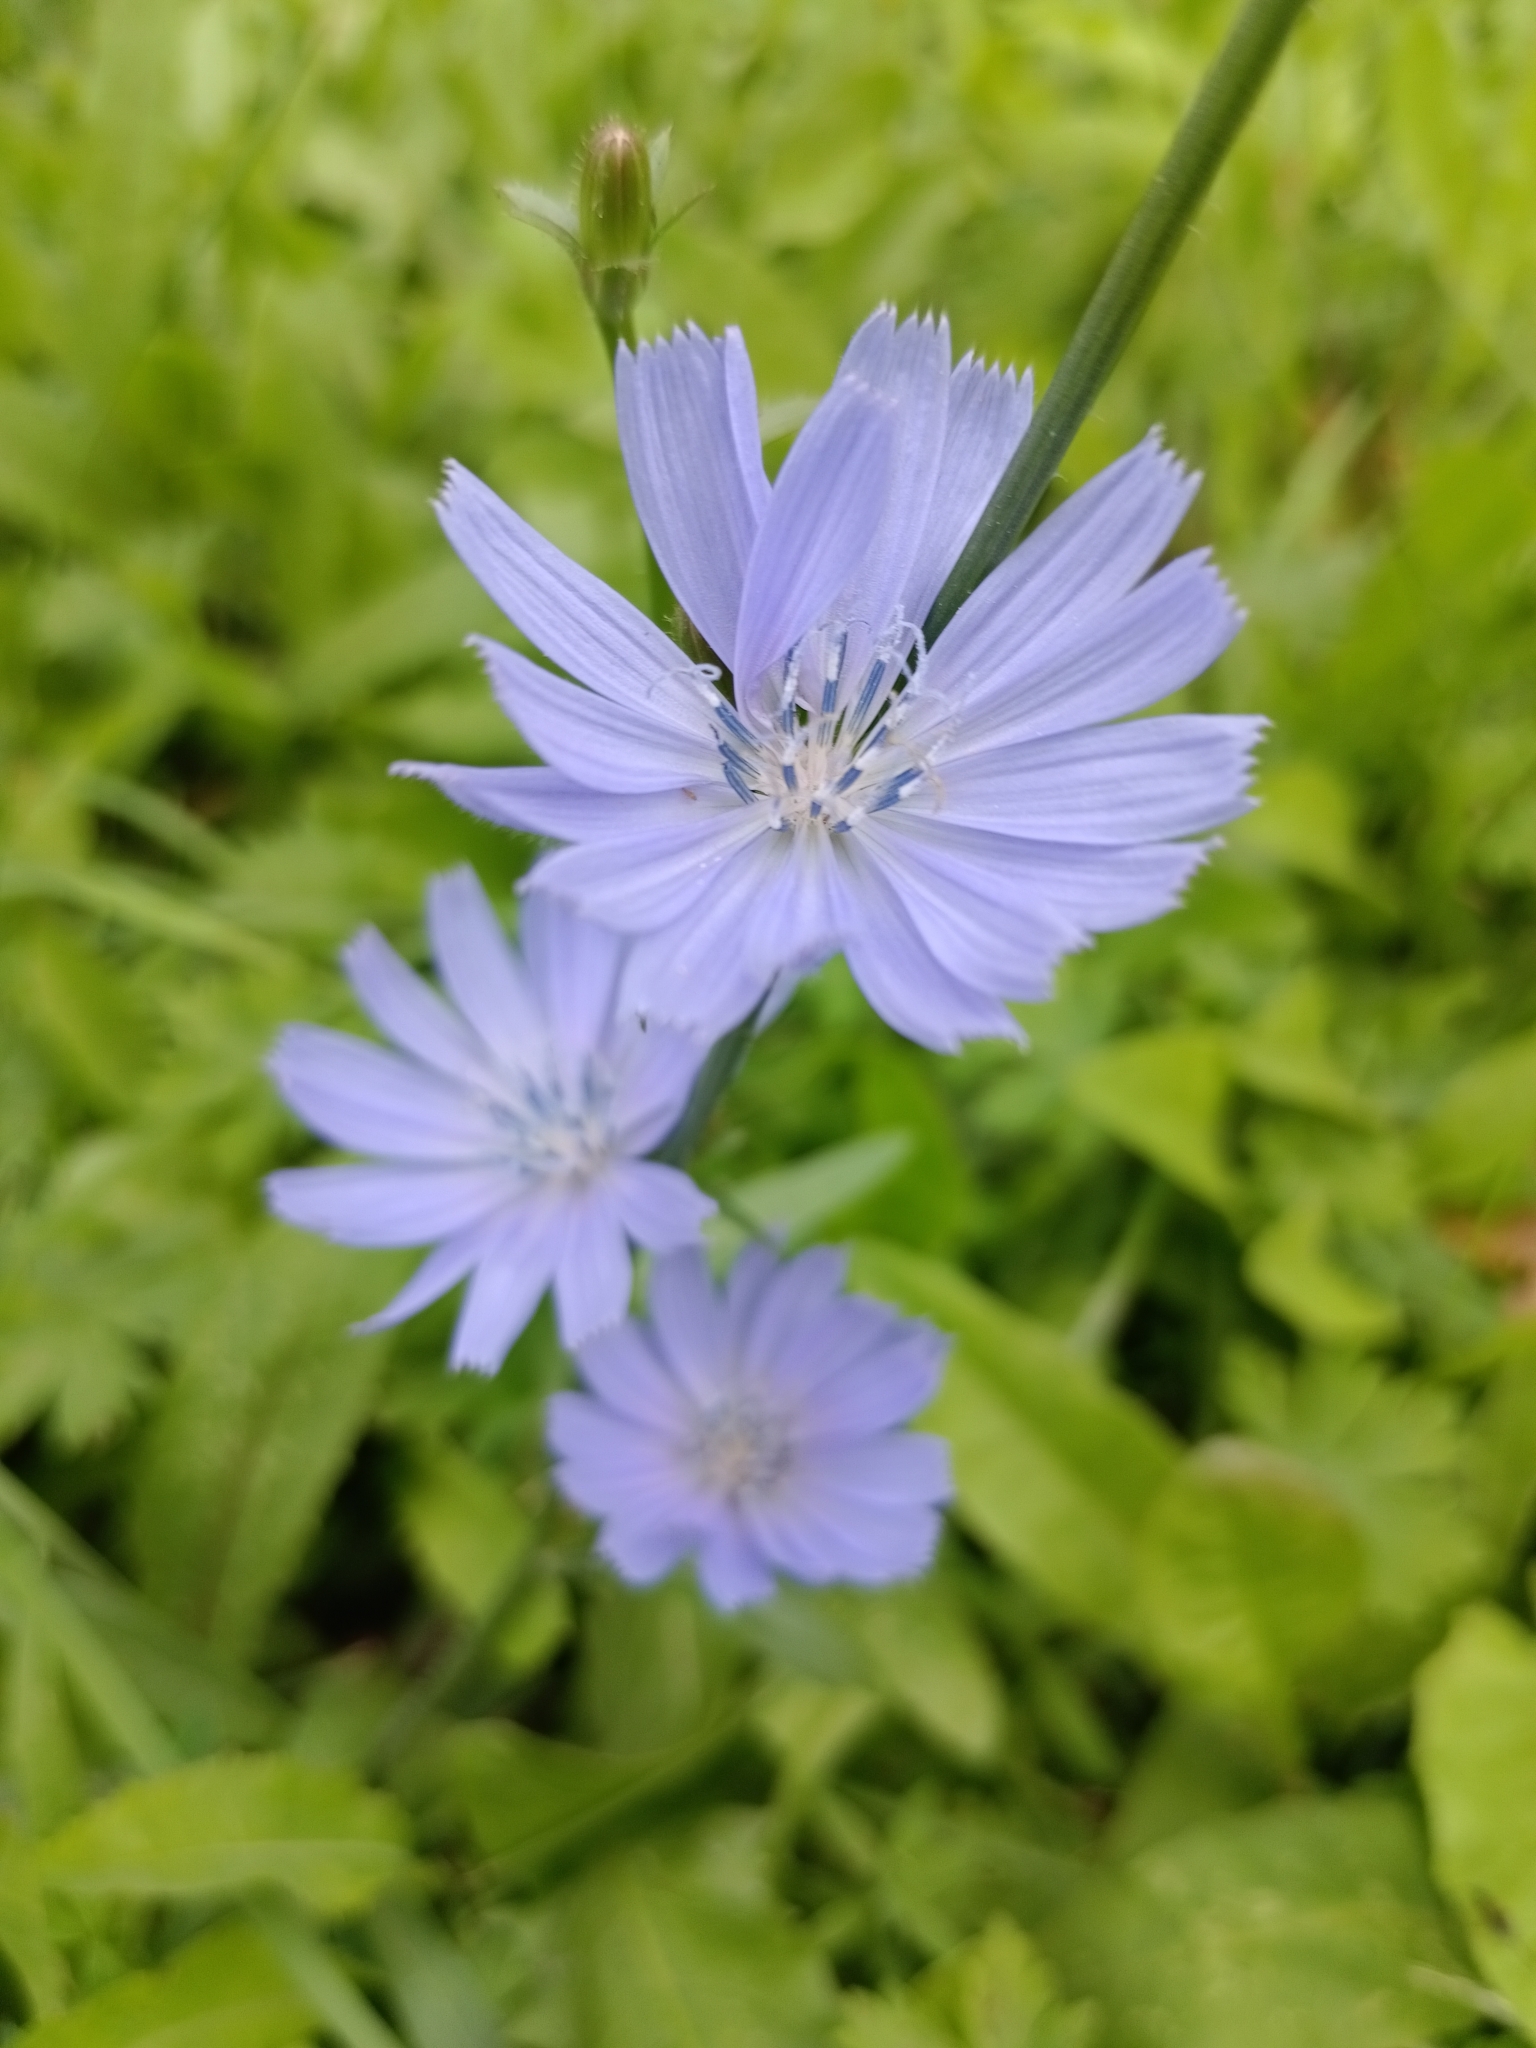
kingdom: Plantae
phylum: Tracheophyta
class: Magnoliopsida
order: Asterales
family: Asteraceae
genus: Cichorium
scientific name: Cichorium intybus
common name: Chicory
